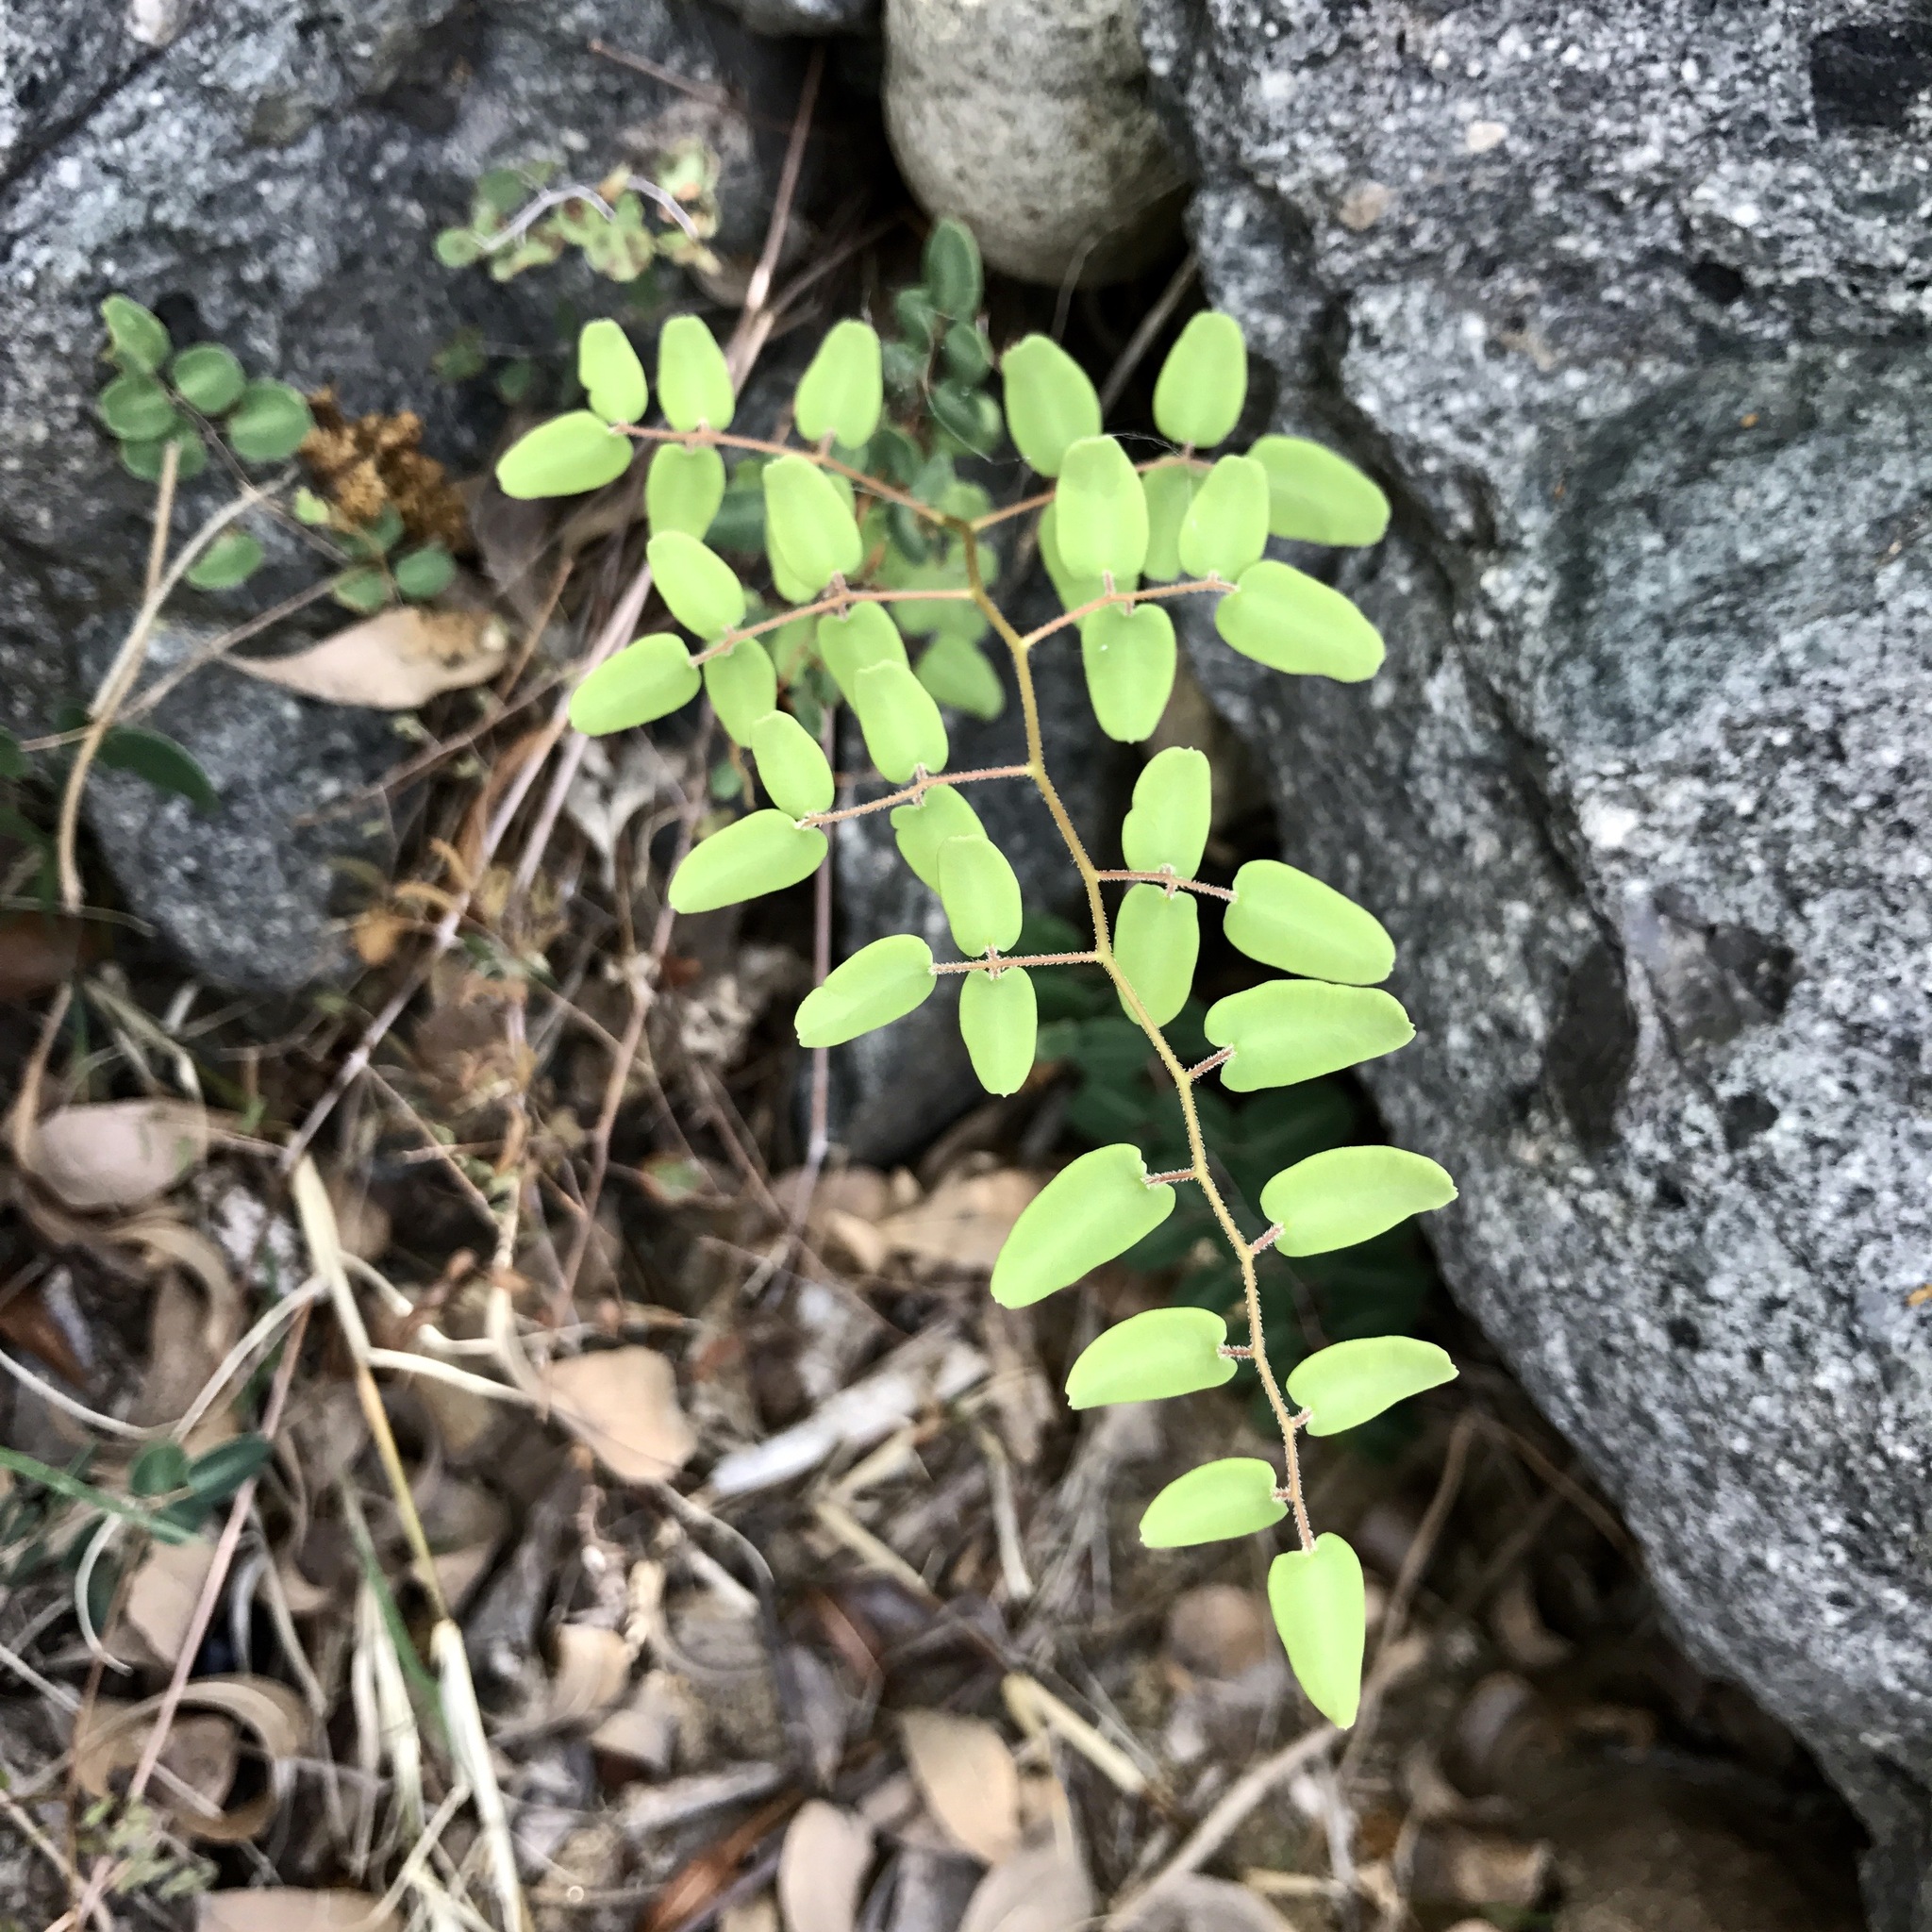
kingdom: Plantae
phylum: Tracheophyta
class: Polypodiopsida
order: Polypodiales
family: Pteridaceae
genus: Pellaea
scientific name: Pellaea intermedia
